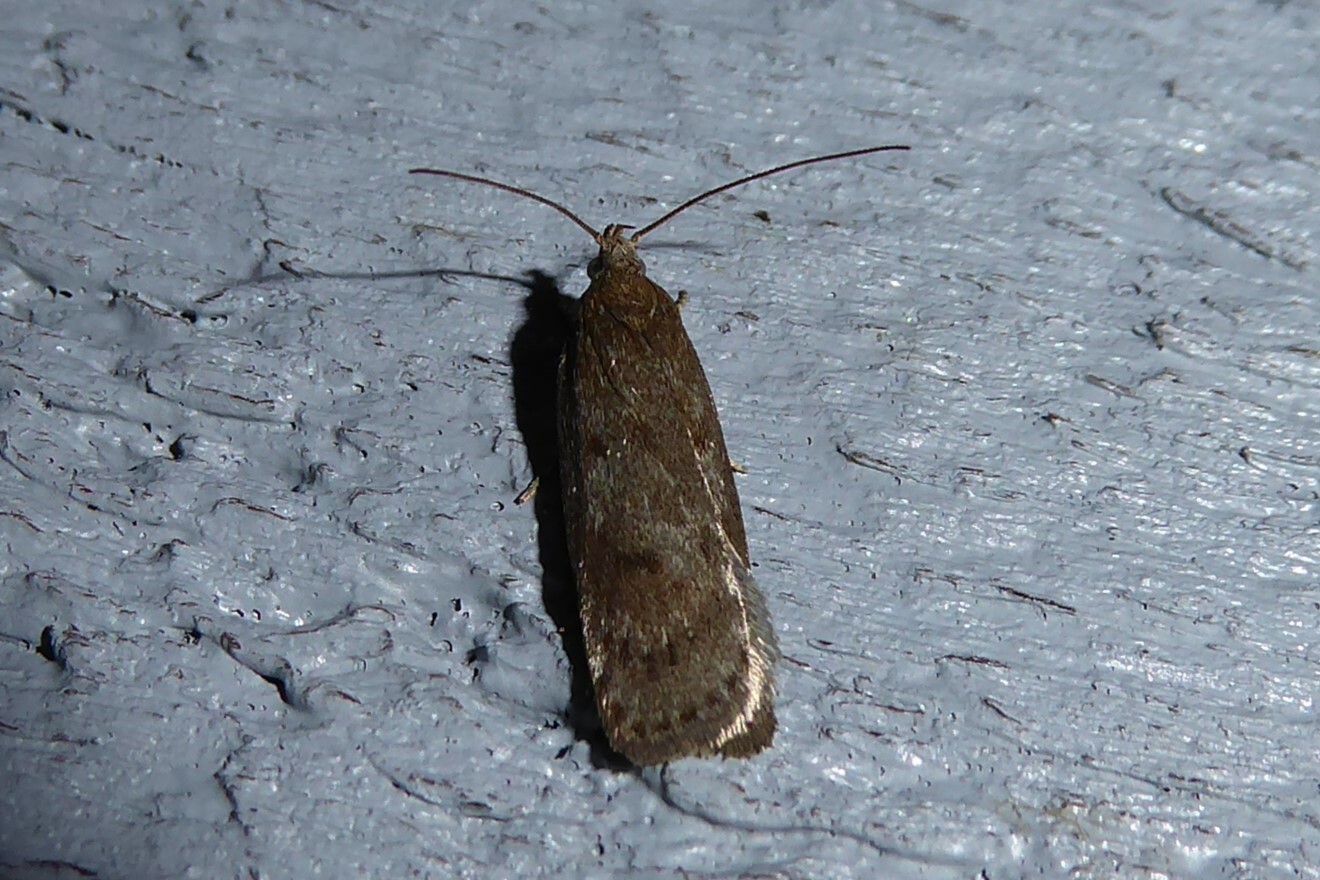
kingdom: Animalia
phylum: Arthropoda
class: Insecta
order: Lepidoptera
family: Depressariidae
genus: Phaeosaces
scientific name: Phaeosaces apocrypta
